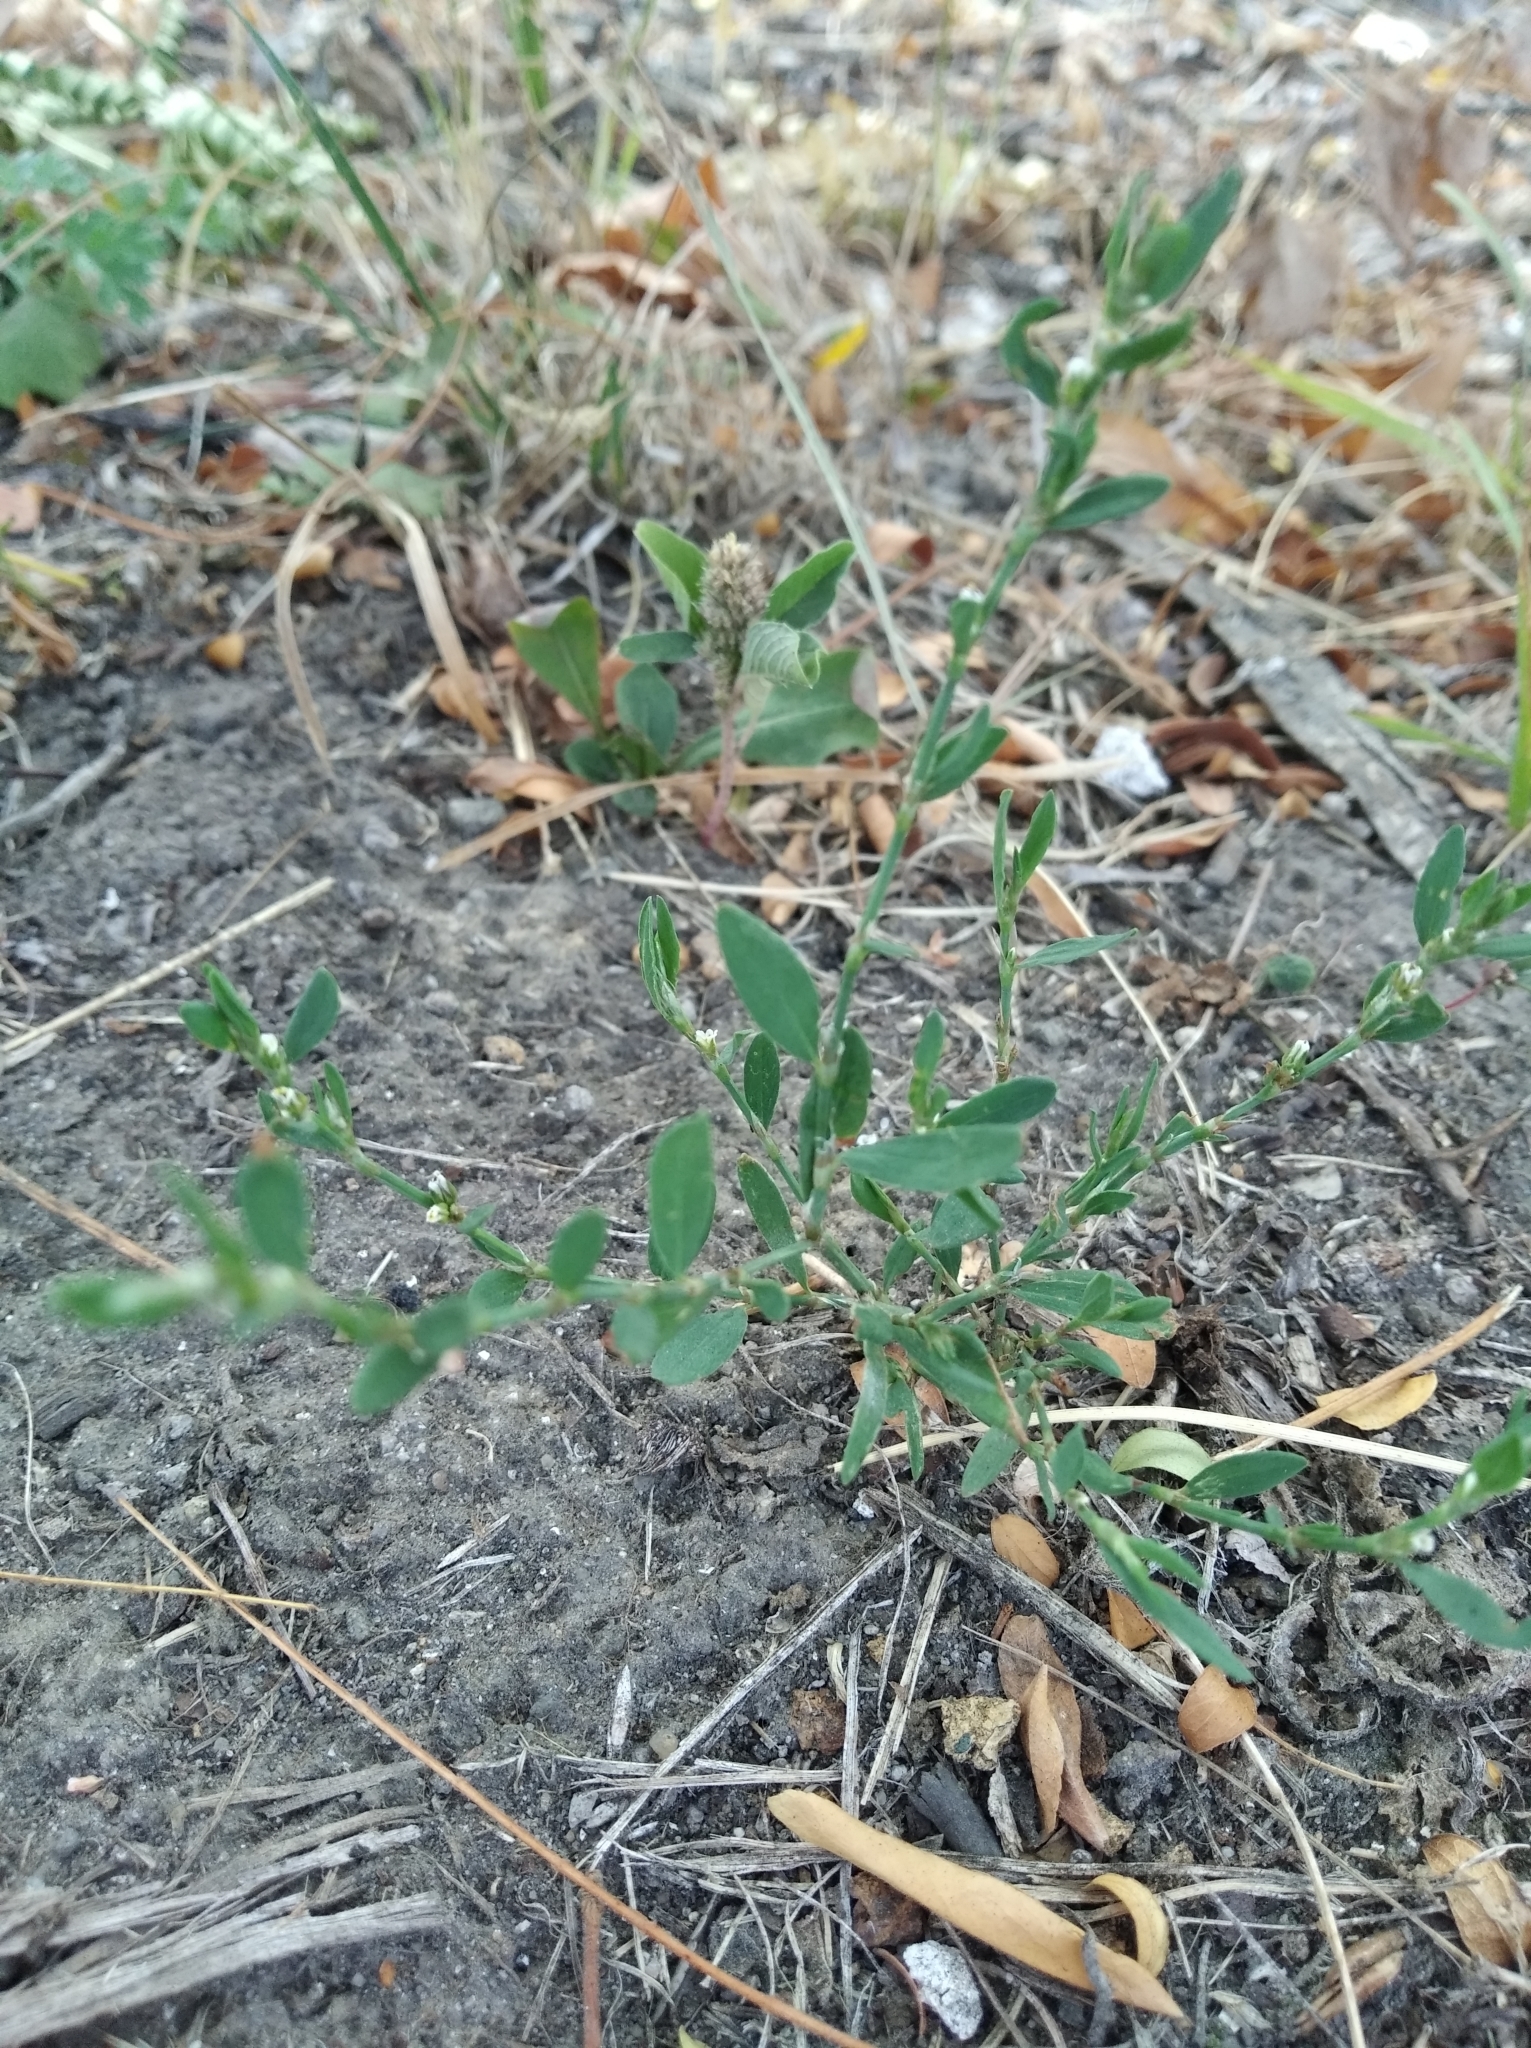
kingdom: Plantae
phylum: Tracheophyta
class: Magnoliopsida
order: Caryophyllales
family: Polygonaceae
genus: Polygonum
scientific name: Polygonum arenastrum
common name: Equal-leaved knotgrass
